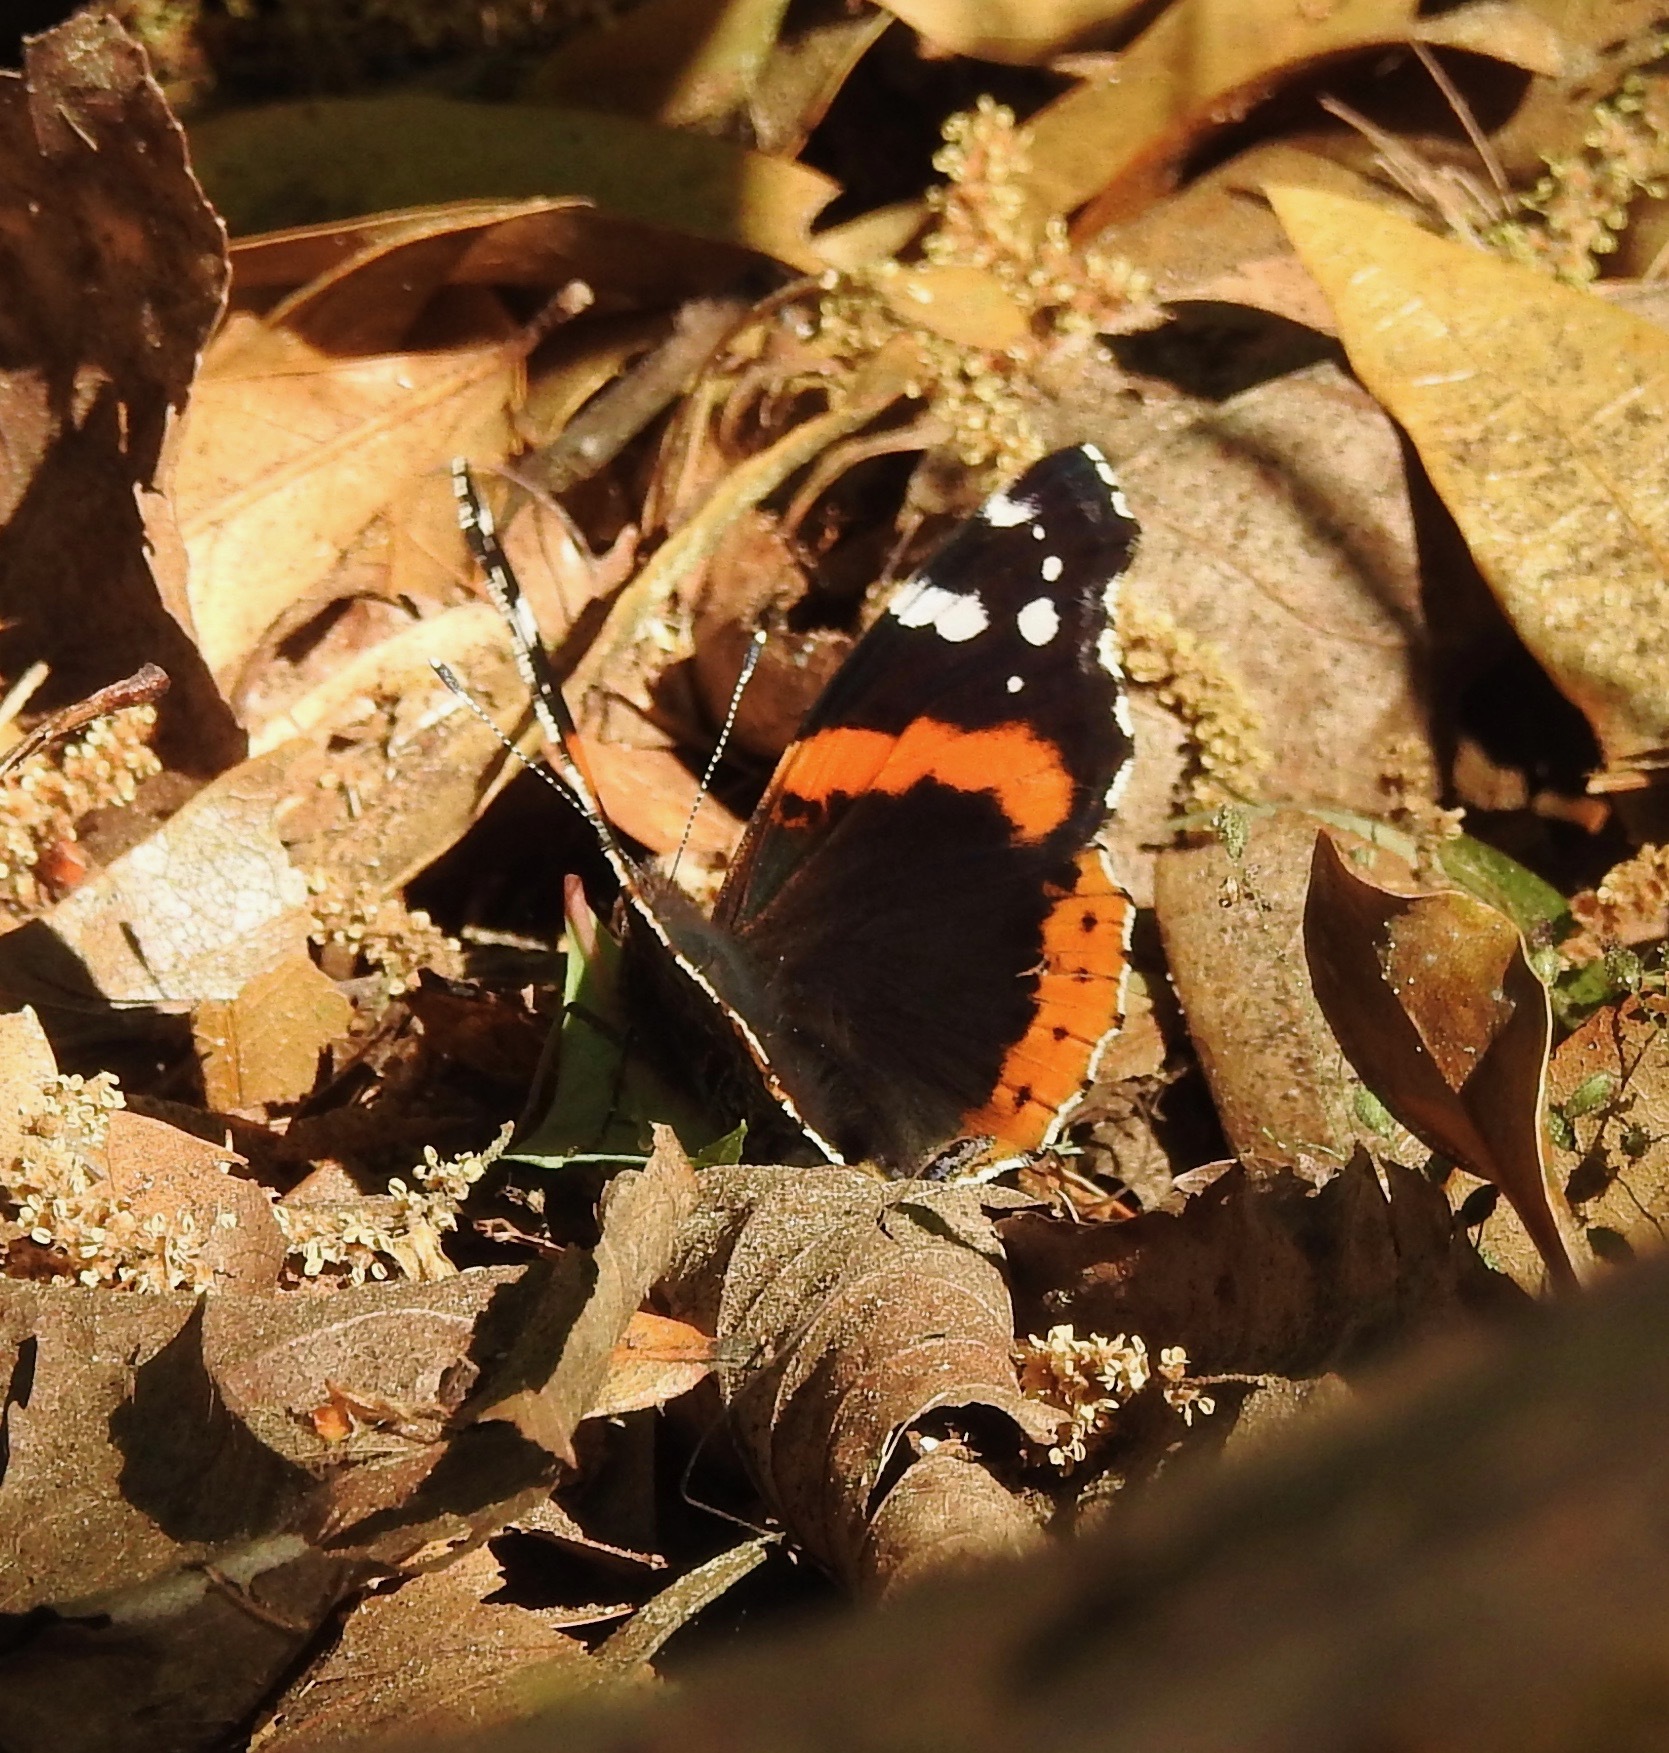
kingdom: Animalia
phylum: Arthropoda
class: Insecta
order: Lepidoptera
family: Nymphalidae
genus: Vanessa
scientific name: Vanessa atalanta
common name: Red admiral
